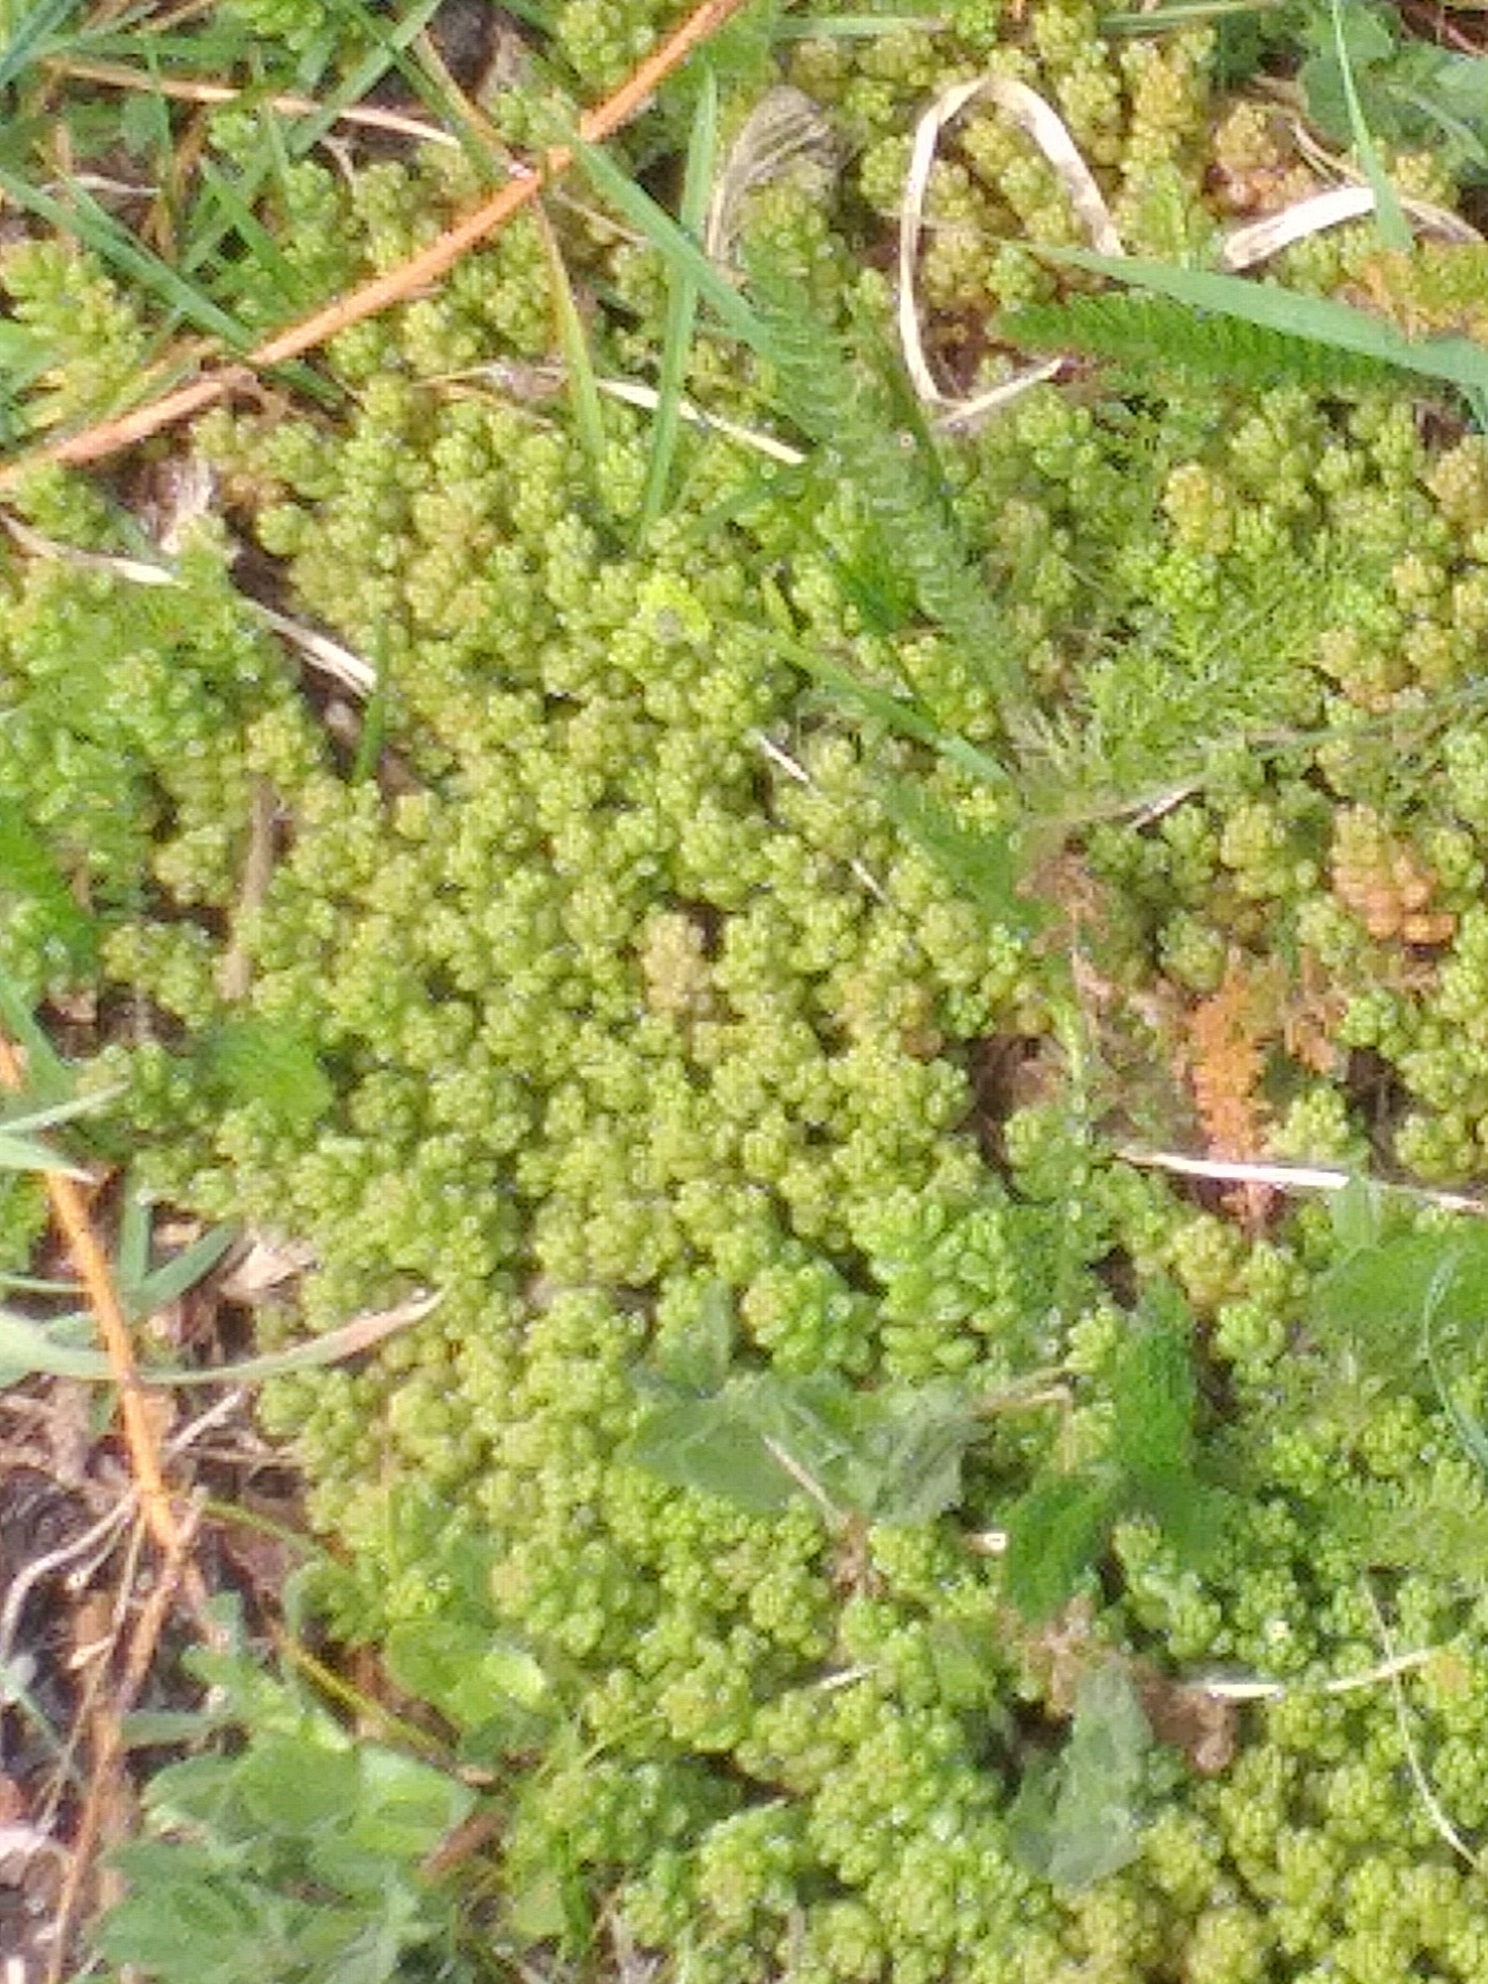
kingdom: Plantae
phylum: Tracheophyta
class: Magnoliopsida
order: Saxifragales
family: Crassulaceae
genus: Sedum
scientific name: Sedum album
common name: White stonecrop
